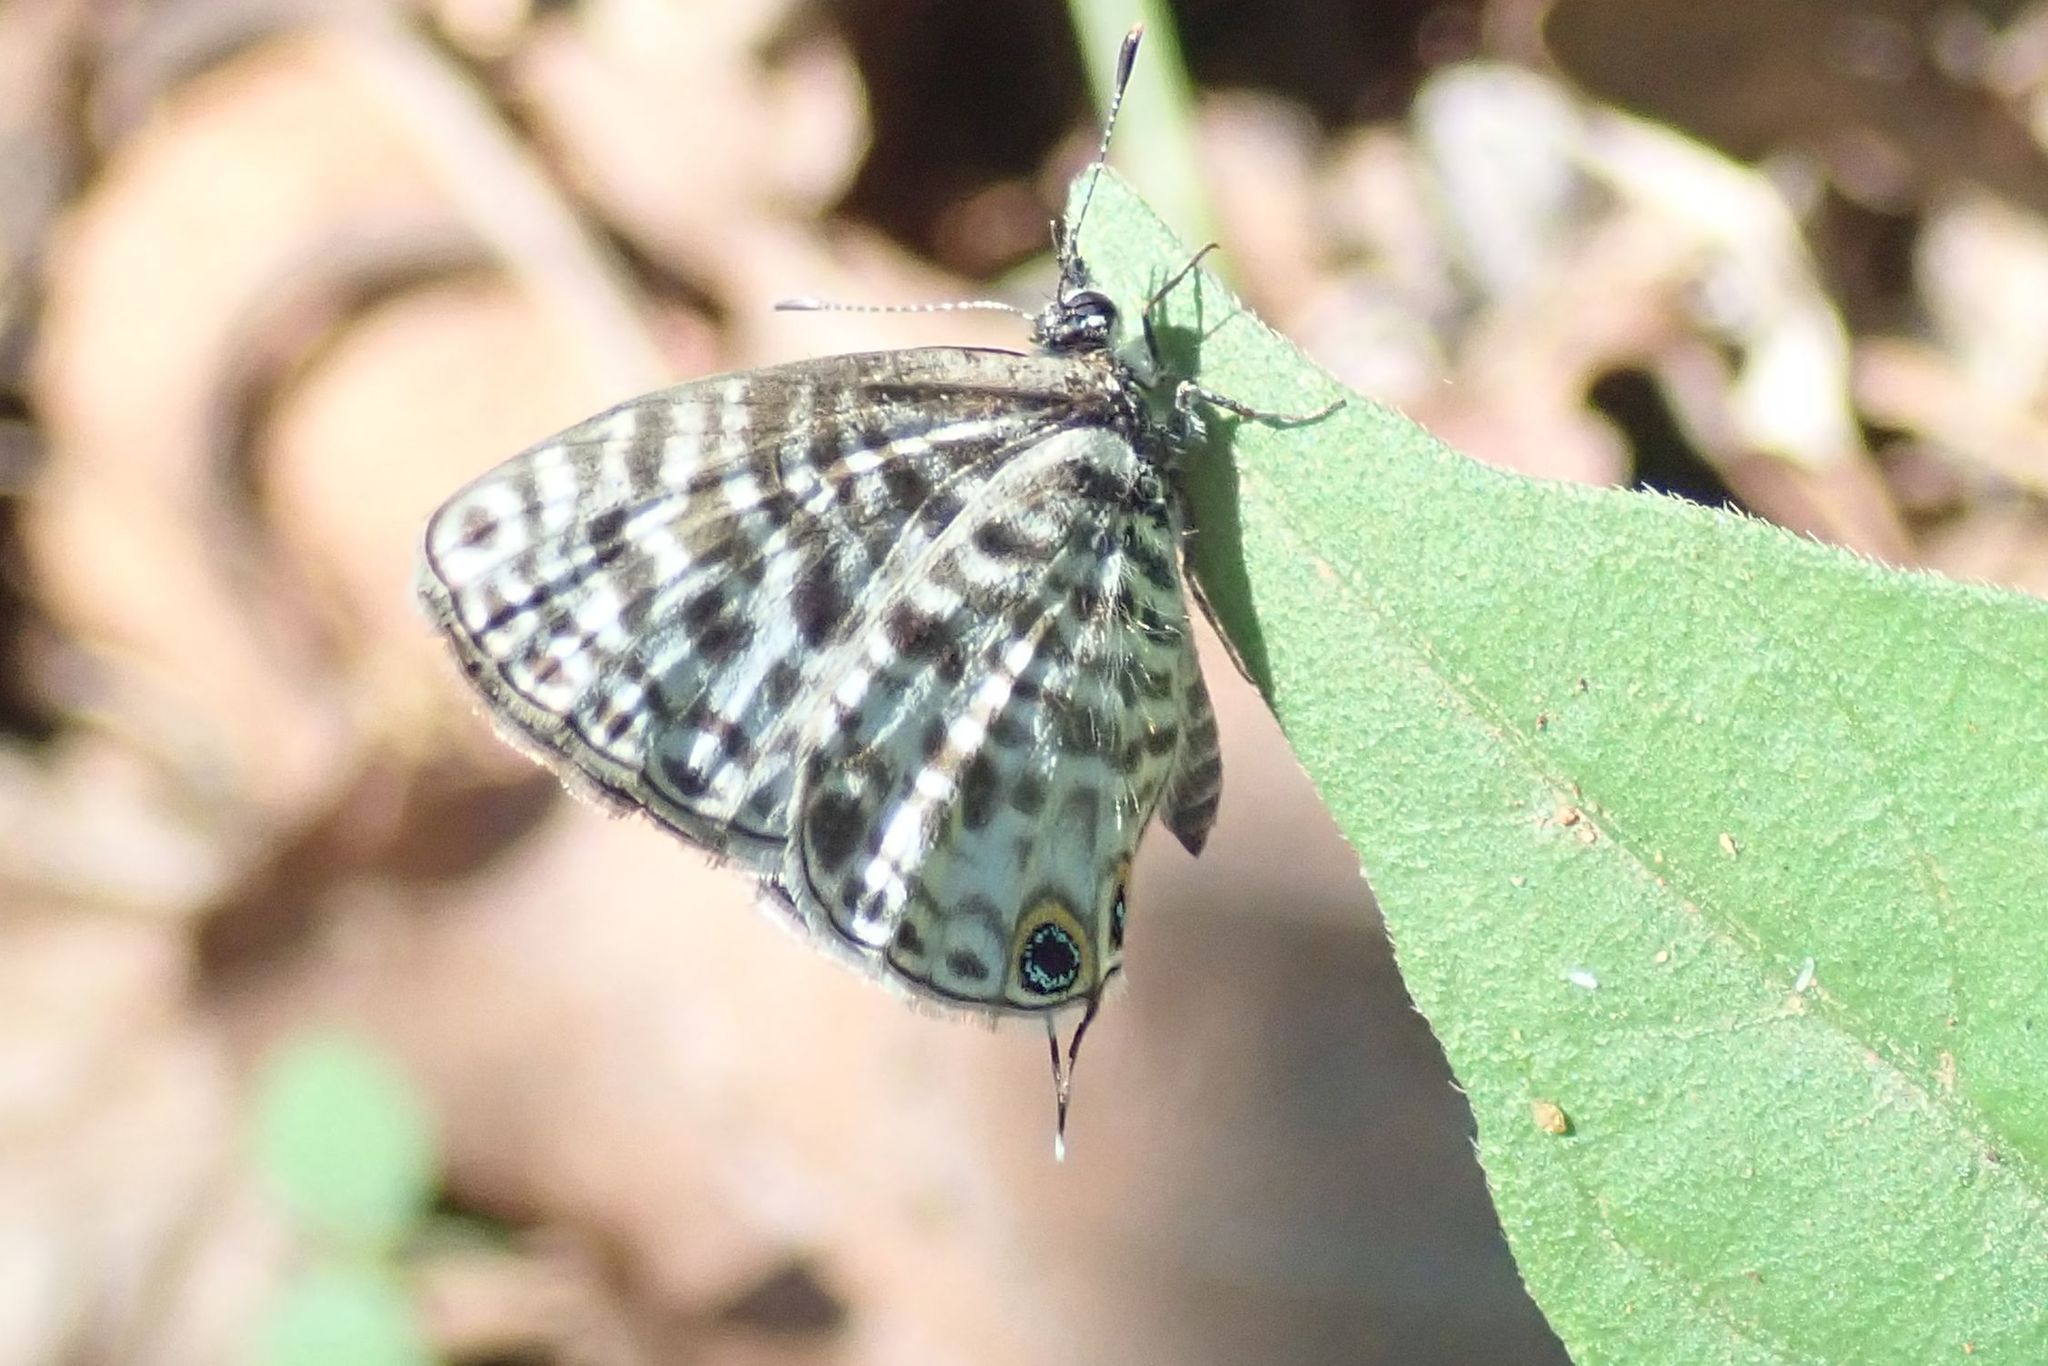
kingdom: Animalia
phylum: Arthropoda
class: Insecta
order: Lepidoptera
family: Lycaenidae
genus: Leptotes
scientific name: Leptotes
